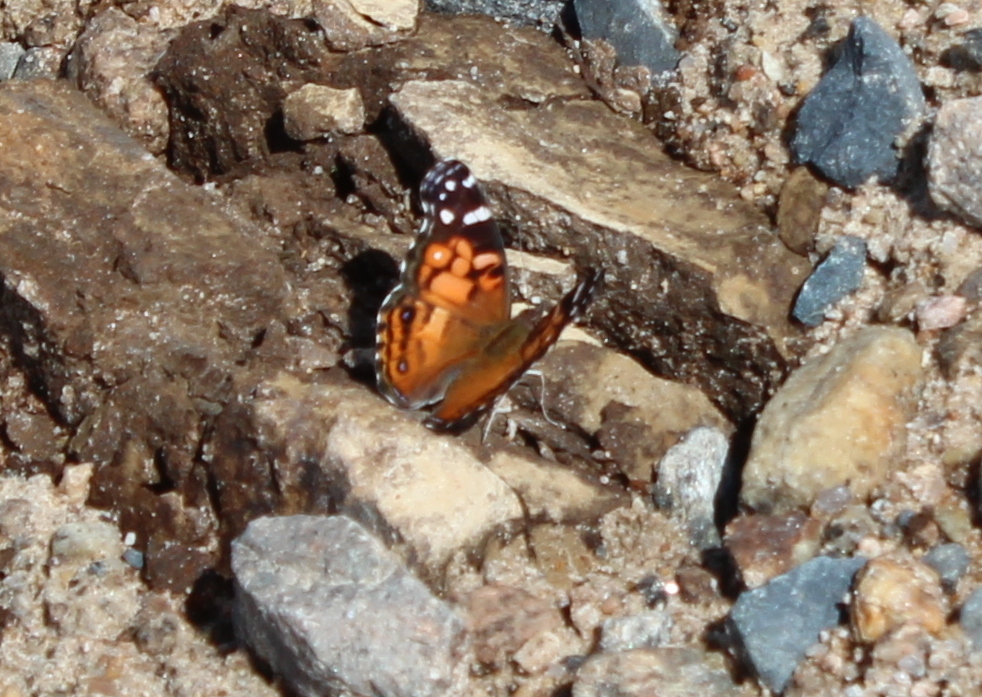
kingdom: Animalia
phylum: Arthropoda
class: Insecta
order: Lepidoptera
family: Nymphalidae
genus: Vanessa
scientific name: Vanessa virginiensis
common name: American lady
